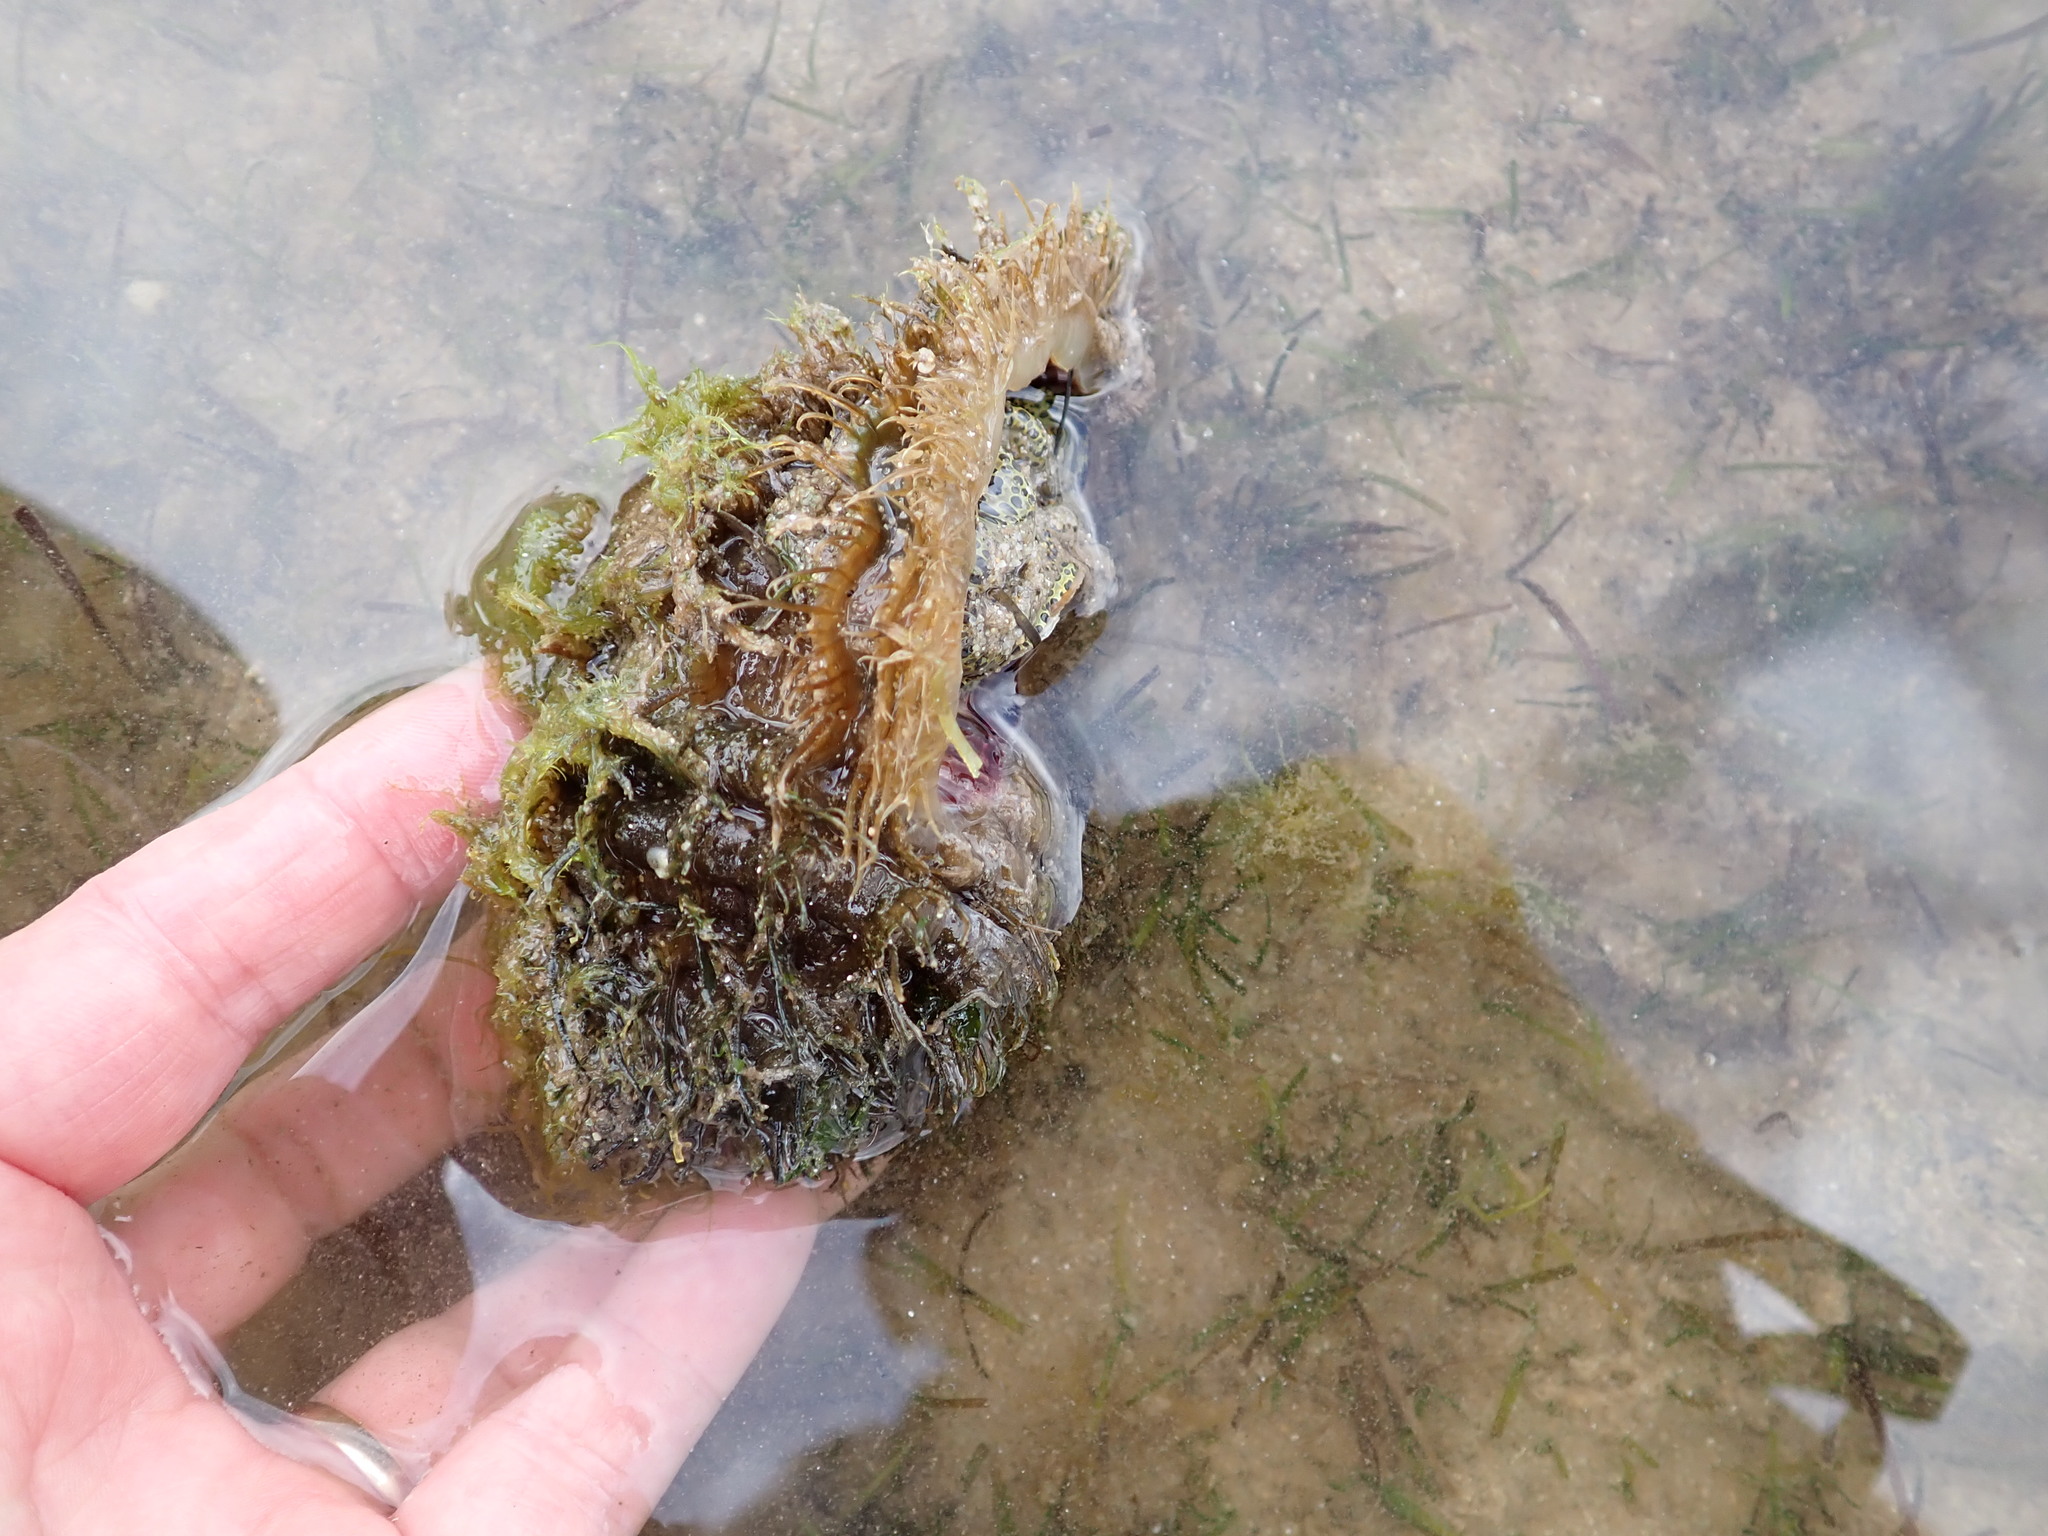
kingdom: Animalia
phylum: Mollusca
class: Gastropoda
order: Littorinimorpha
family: Cymatiidae
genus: Monoplex
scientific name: Monoplex parthenopeus
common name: Giant triton
